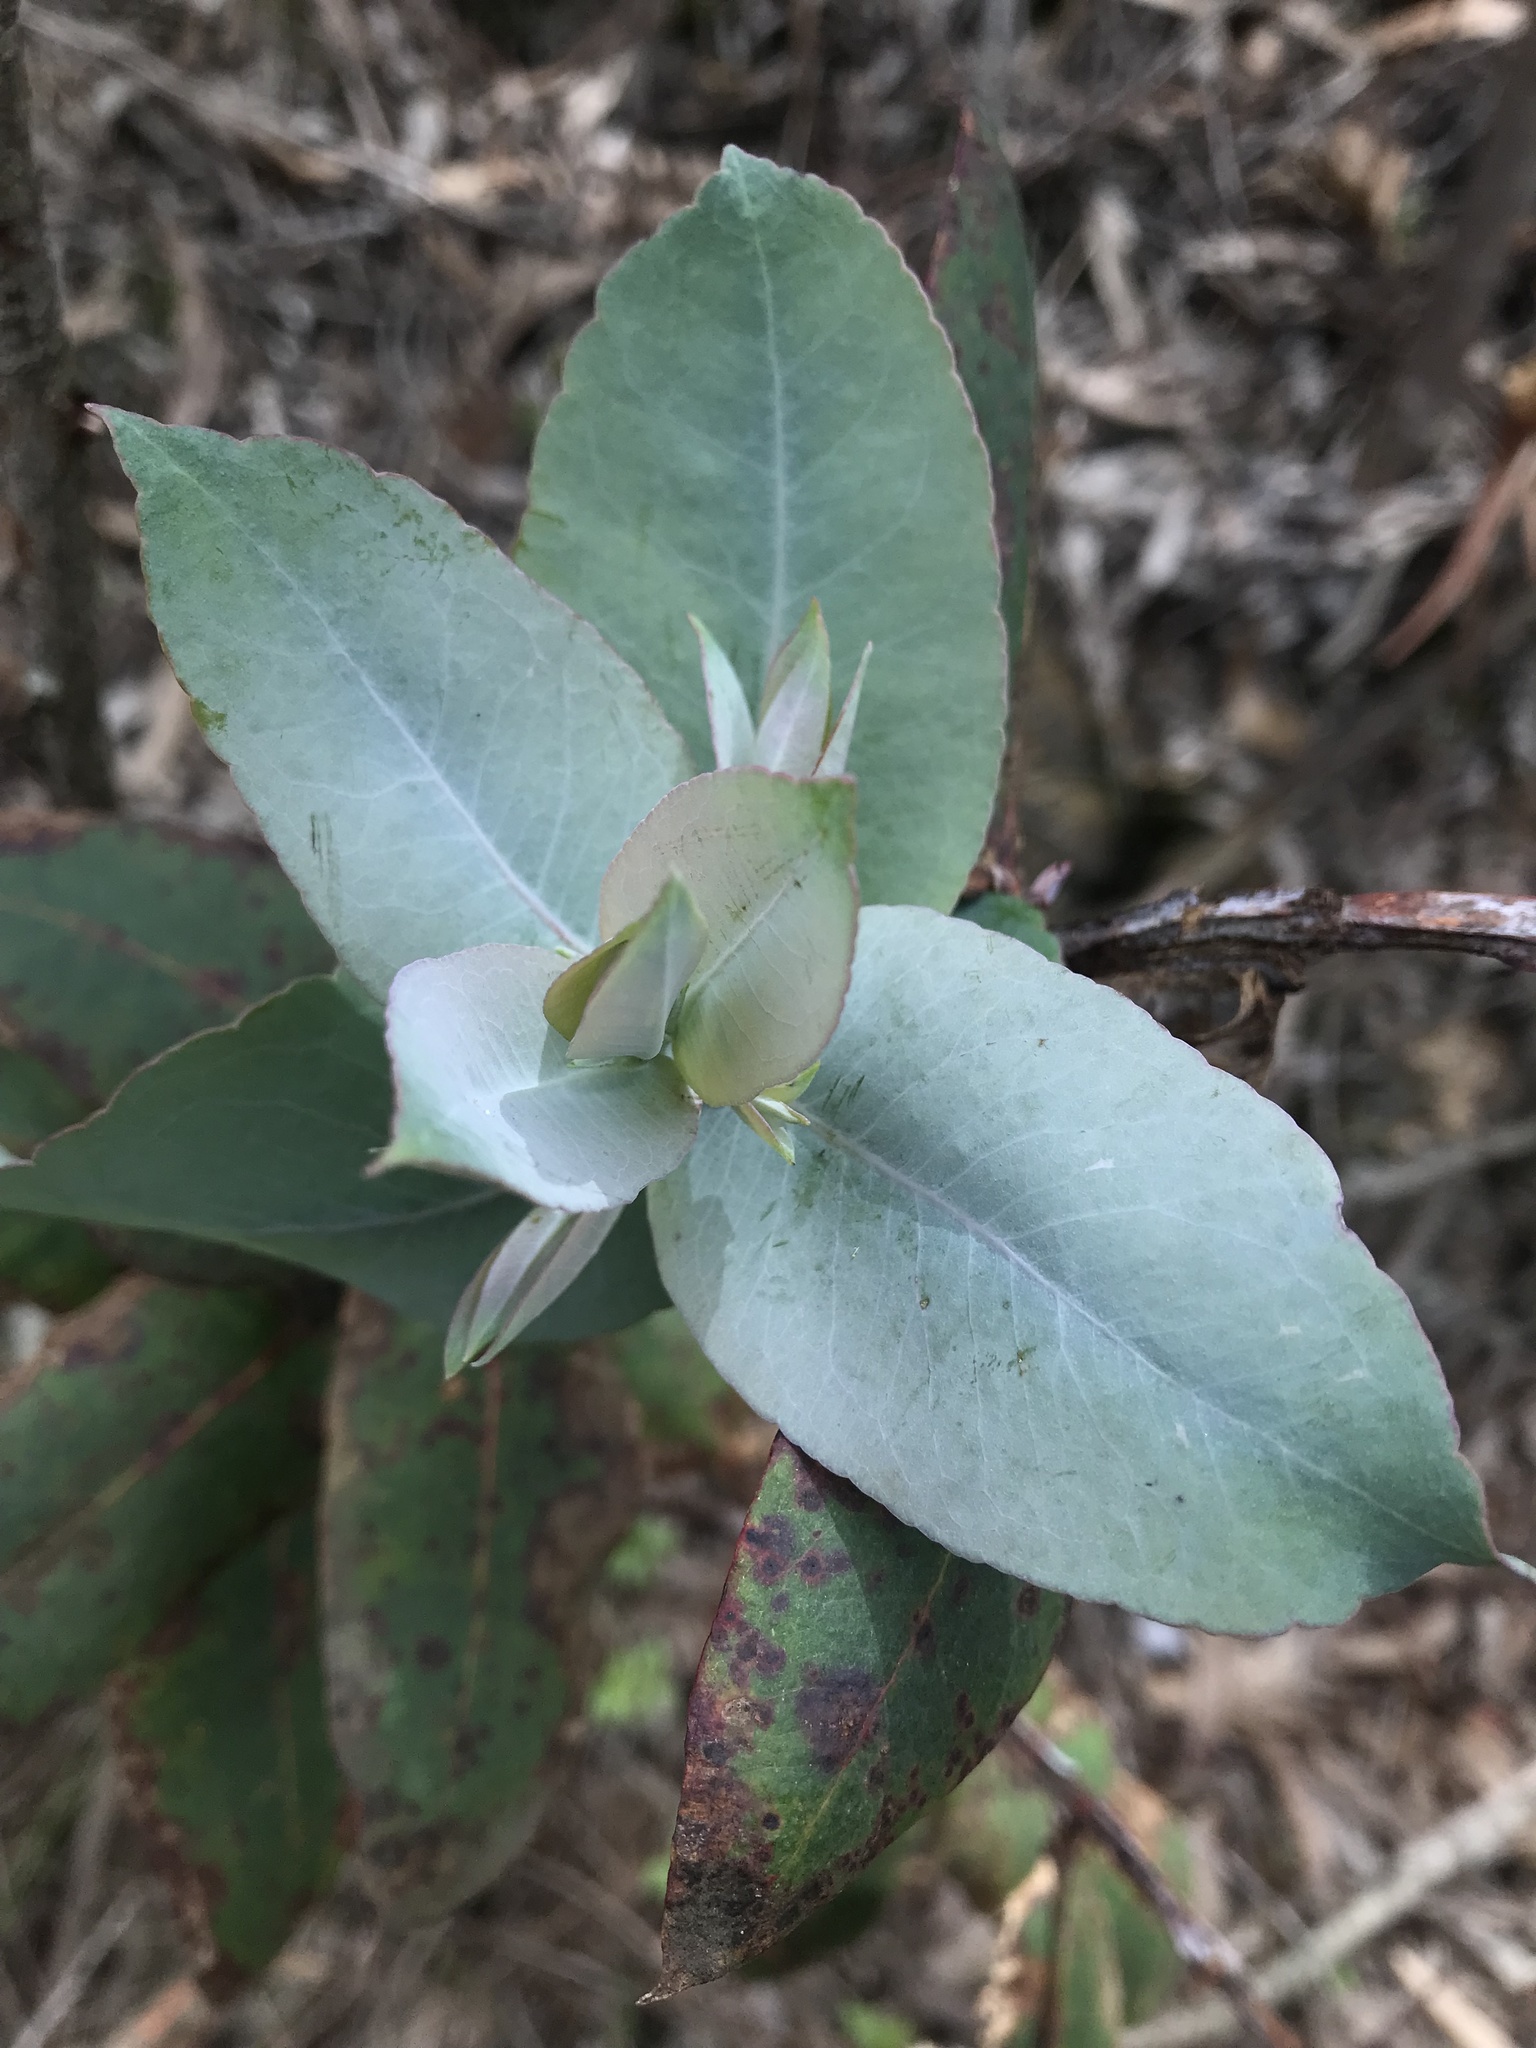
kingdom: Plantae
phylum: Tracheophyta
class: Magnoliopsida
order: Myrtales
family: Myrtaceae
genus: Eucalyptus
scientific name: Eucalyptus globulus
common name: Southern blue-gum
